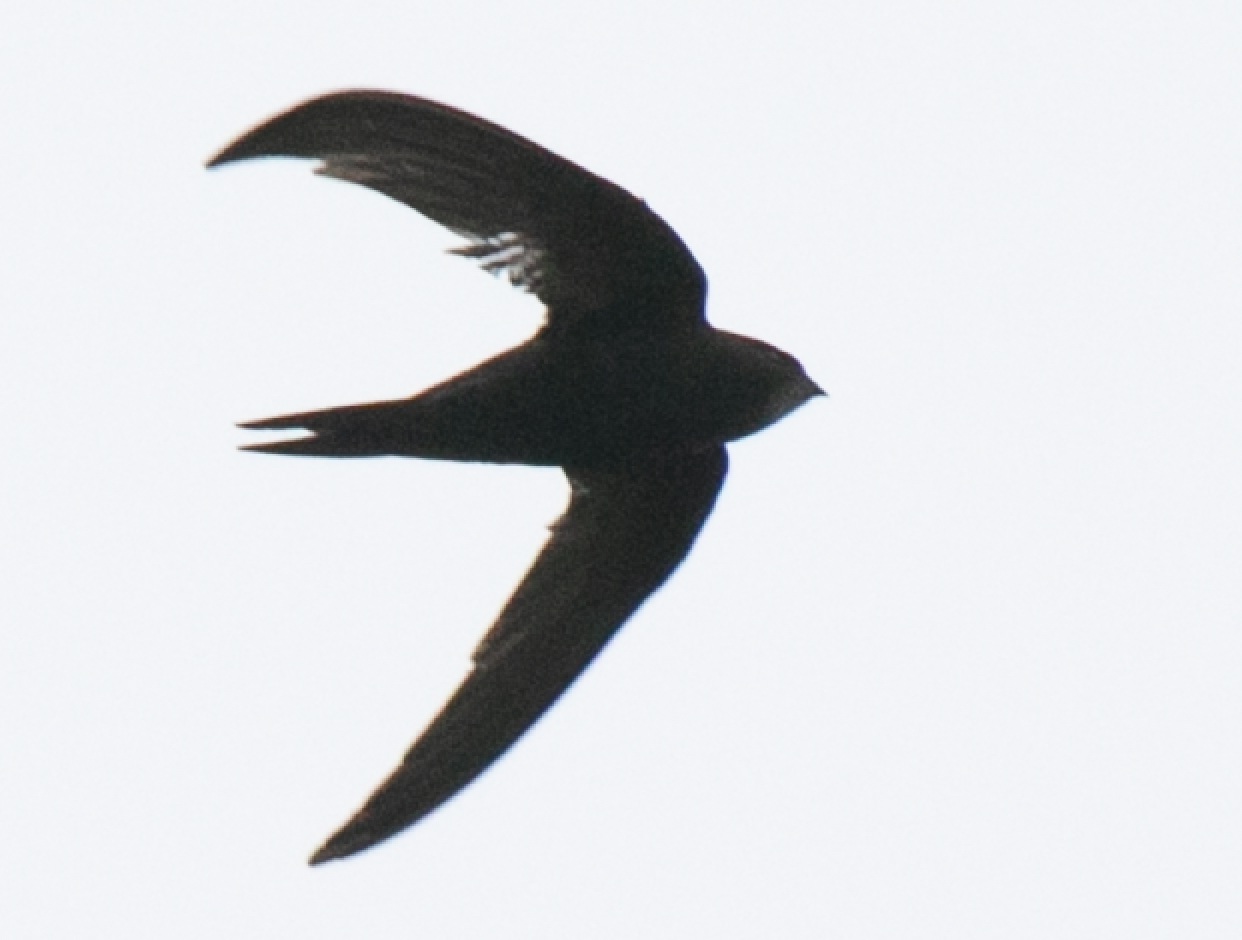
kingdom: Animalia
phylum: Chordata
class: Aves
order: Apodiformes
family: Apodidae
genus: Apus
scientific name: Apus apus
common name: Common swift
